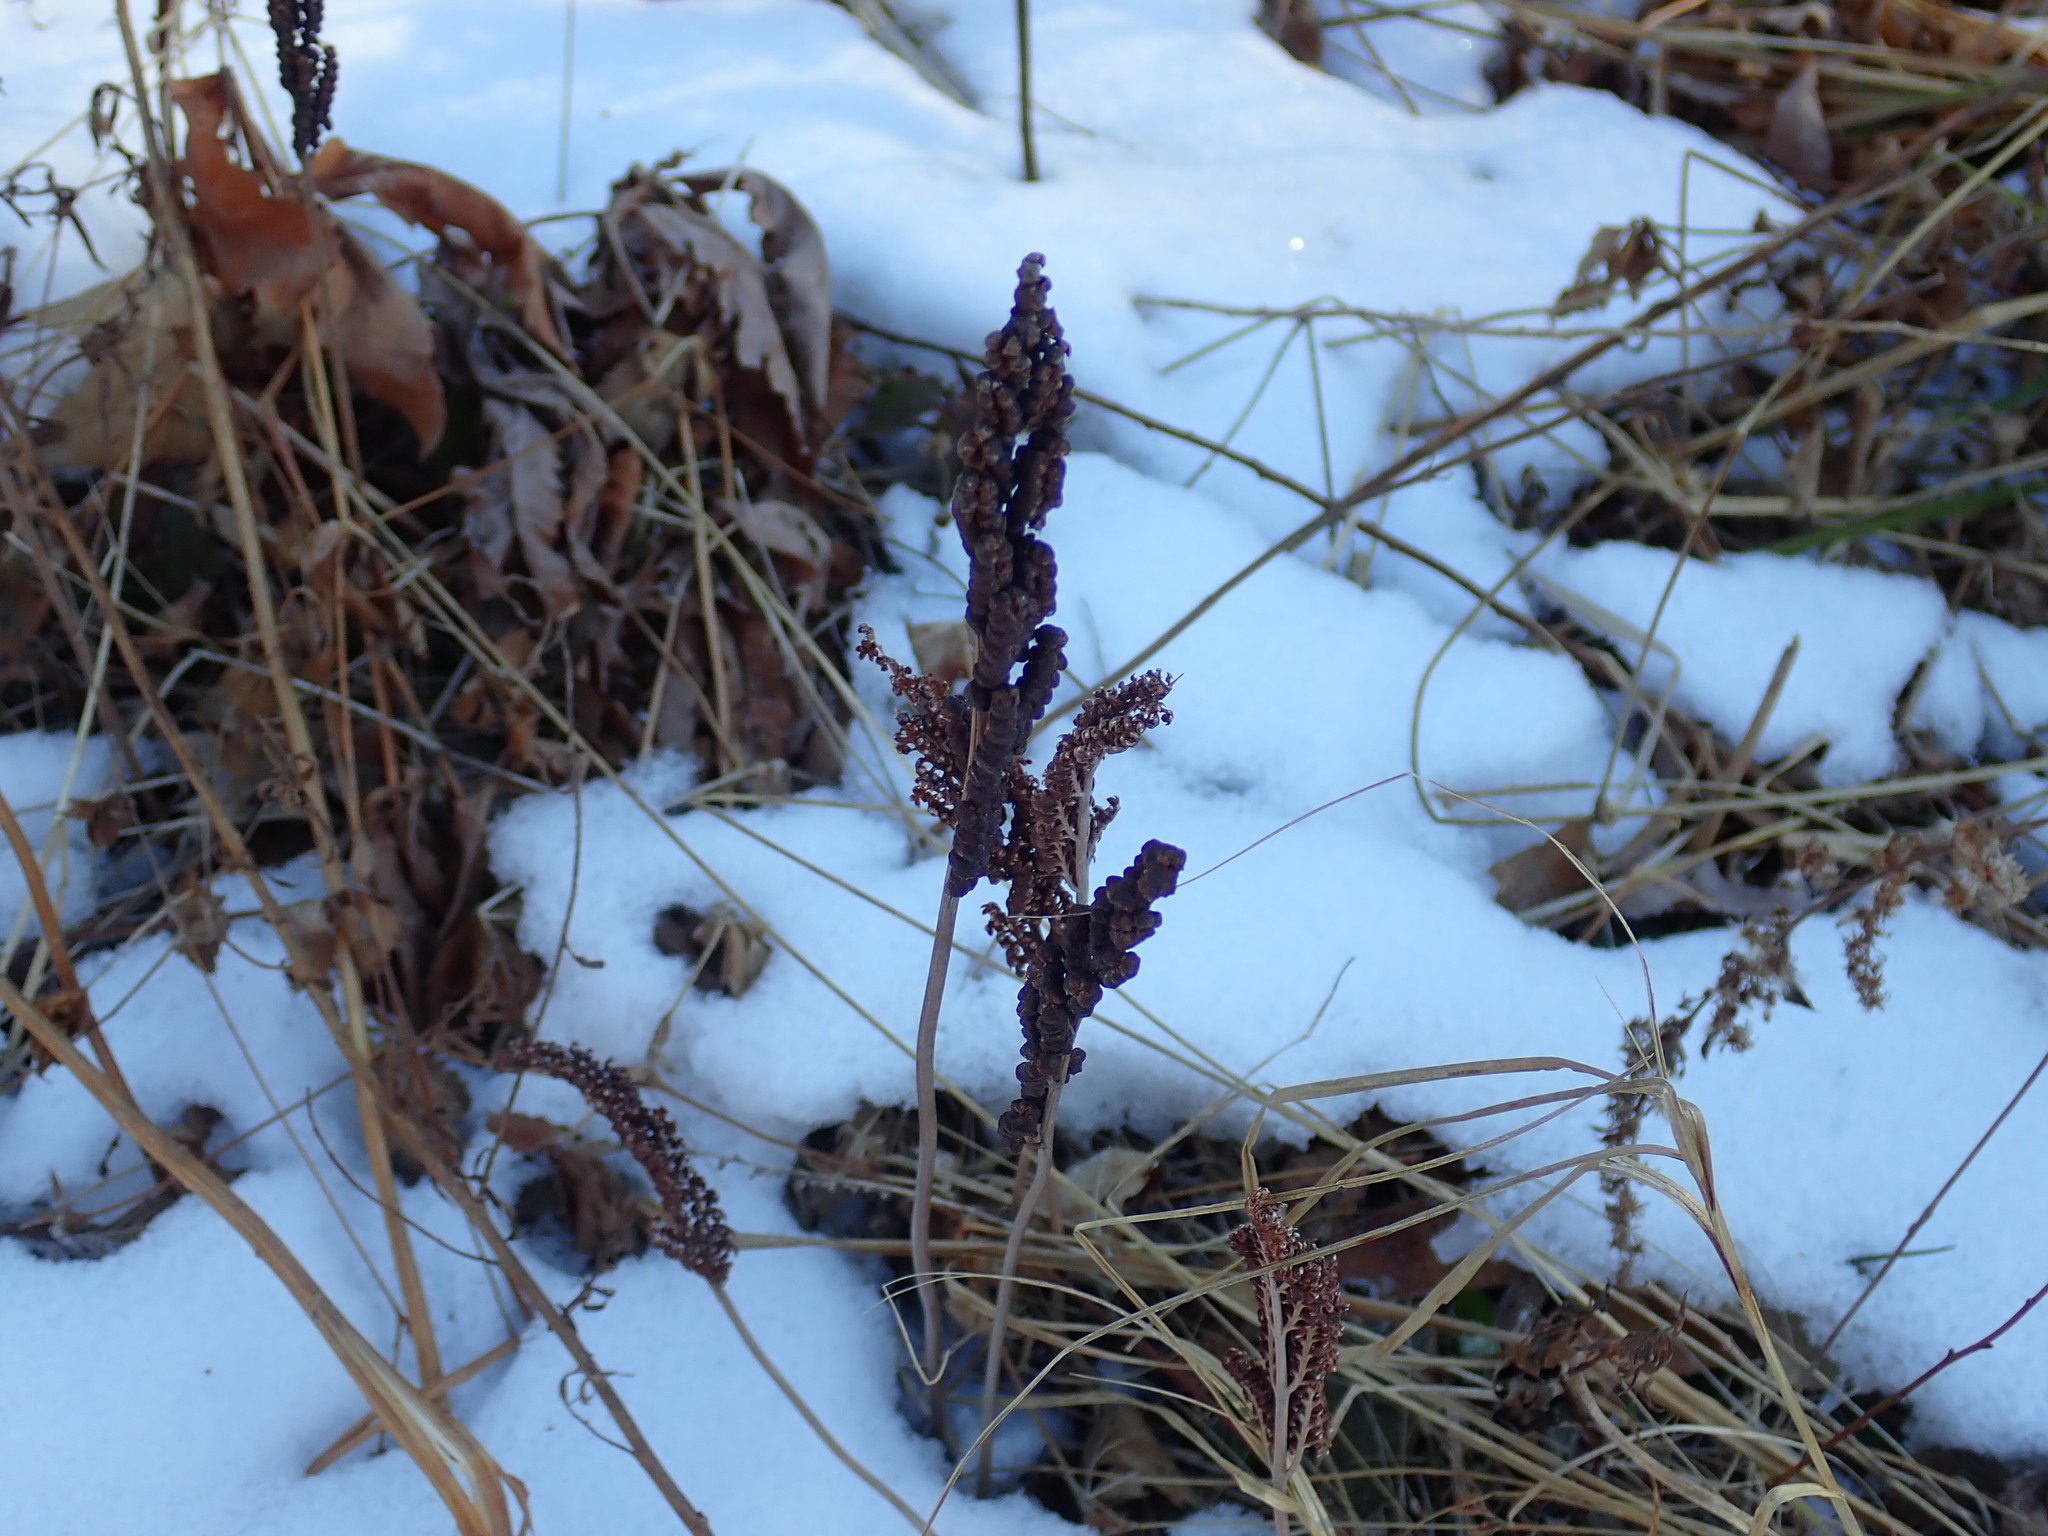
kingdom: Plantae
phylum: Tracheophyta
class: Polypodiopsida
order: Polypodiales
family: Onocleaceae
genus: Onoclea
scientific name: Onoclea sensibilis
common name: Sensitive fern
